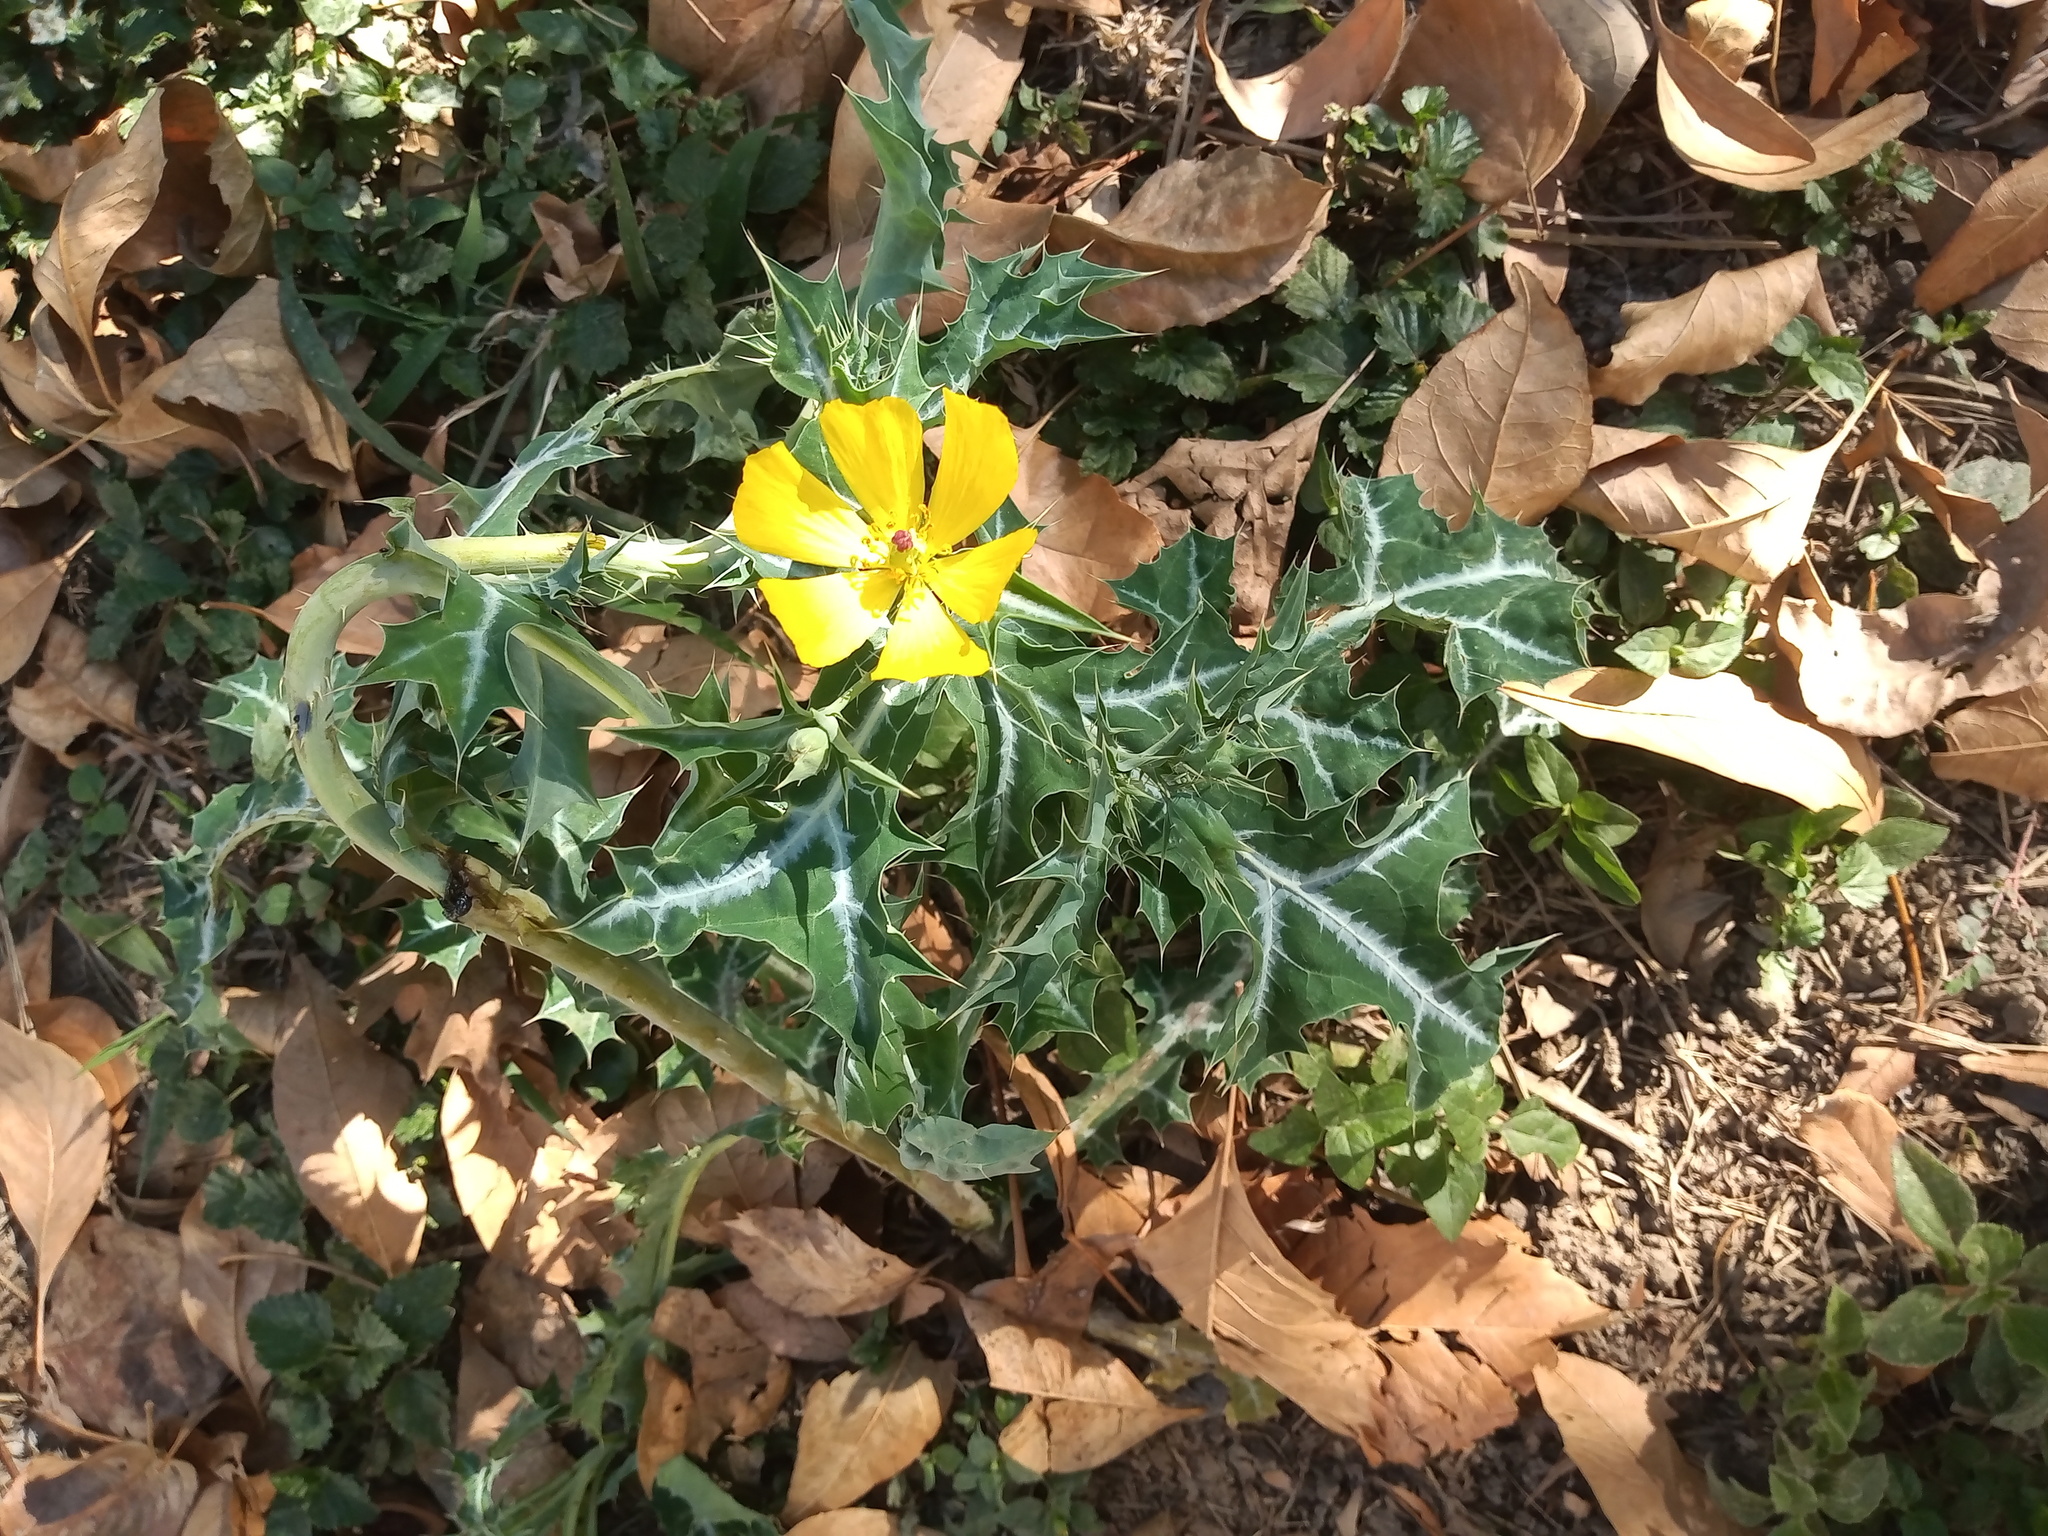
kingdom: Plantae
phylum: Tracheophyta
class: Magnoliopsida
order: Ranunculales
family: Papaveraceae
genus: Argemone
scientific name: Argemone mexicana
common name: Mexican poppy
